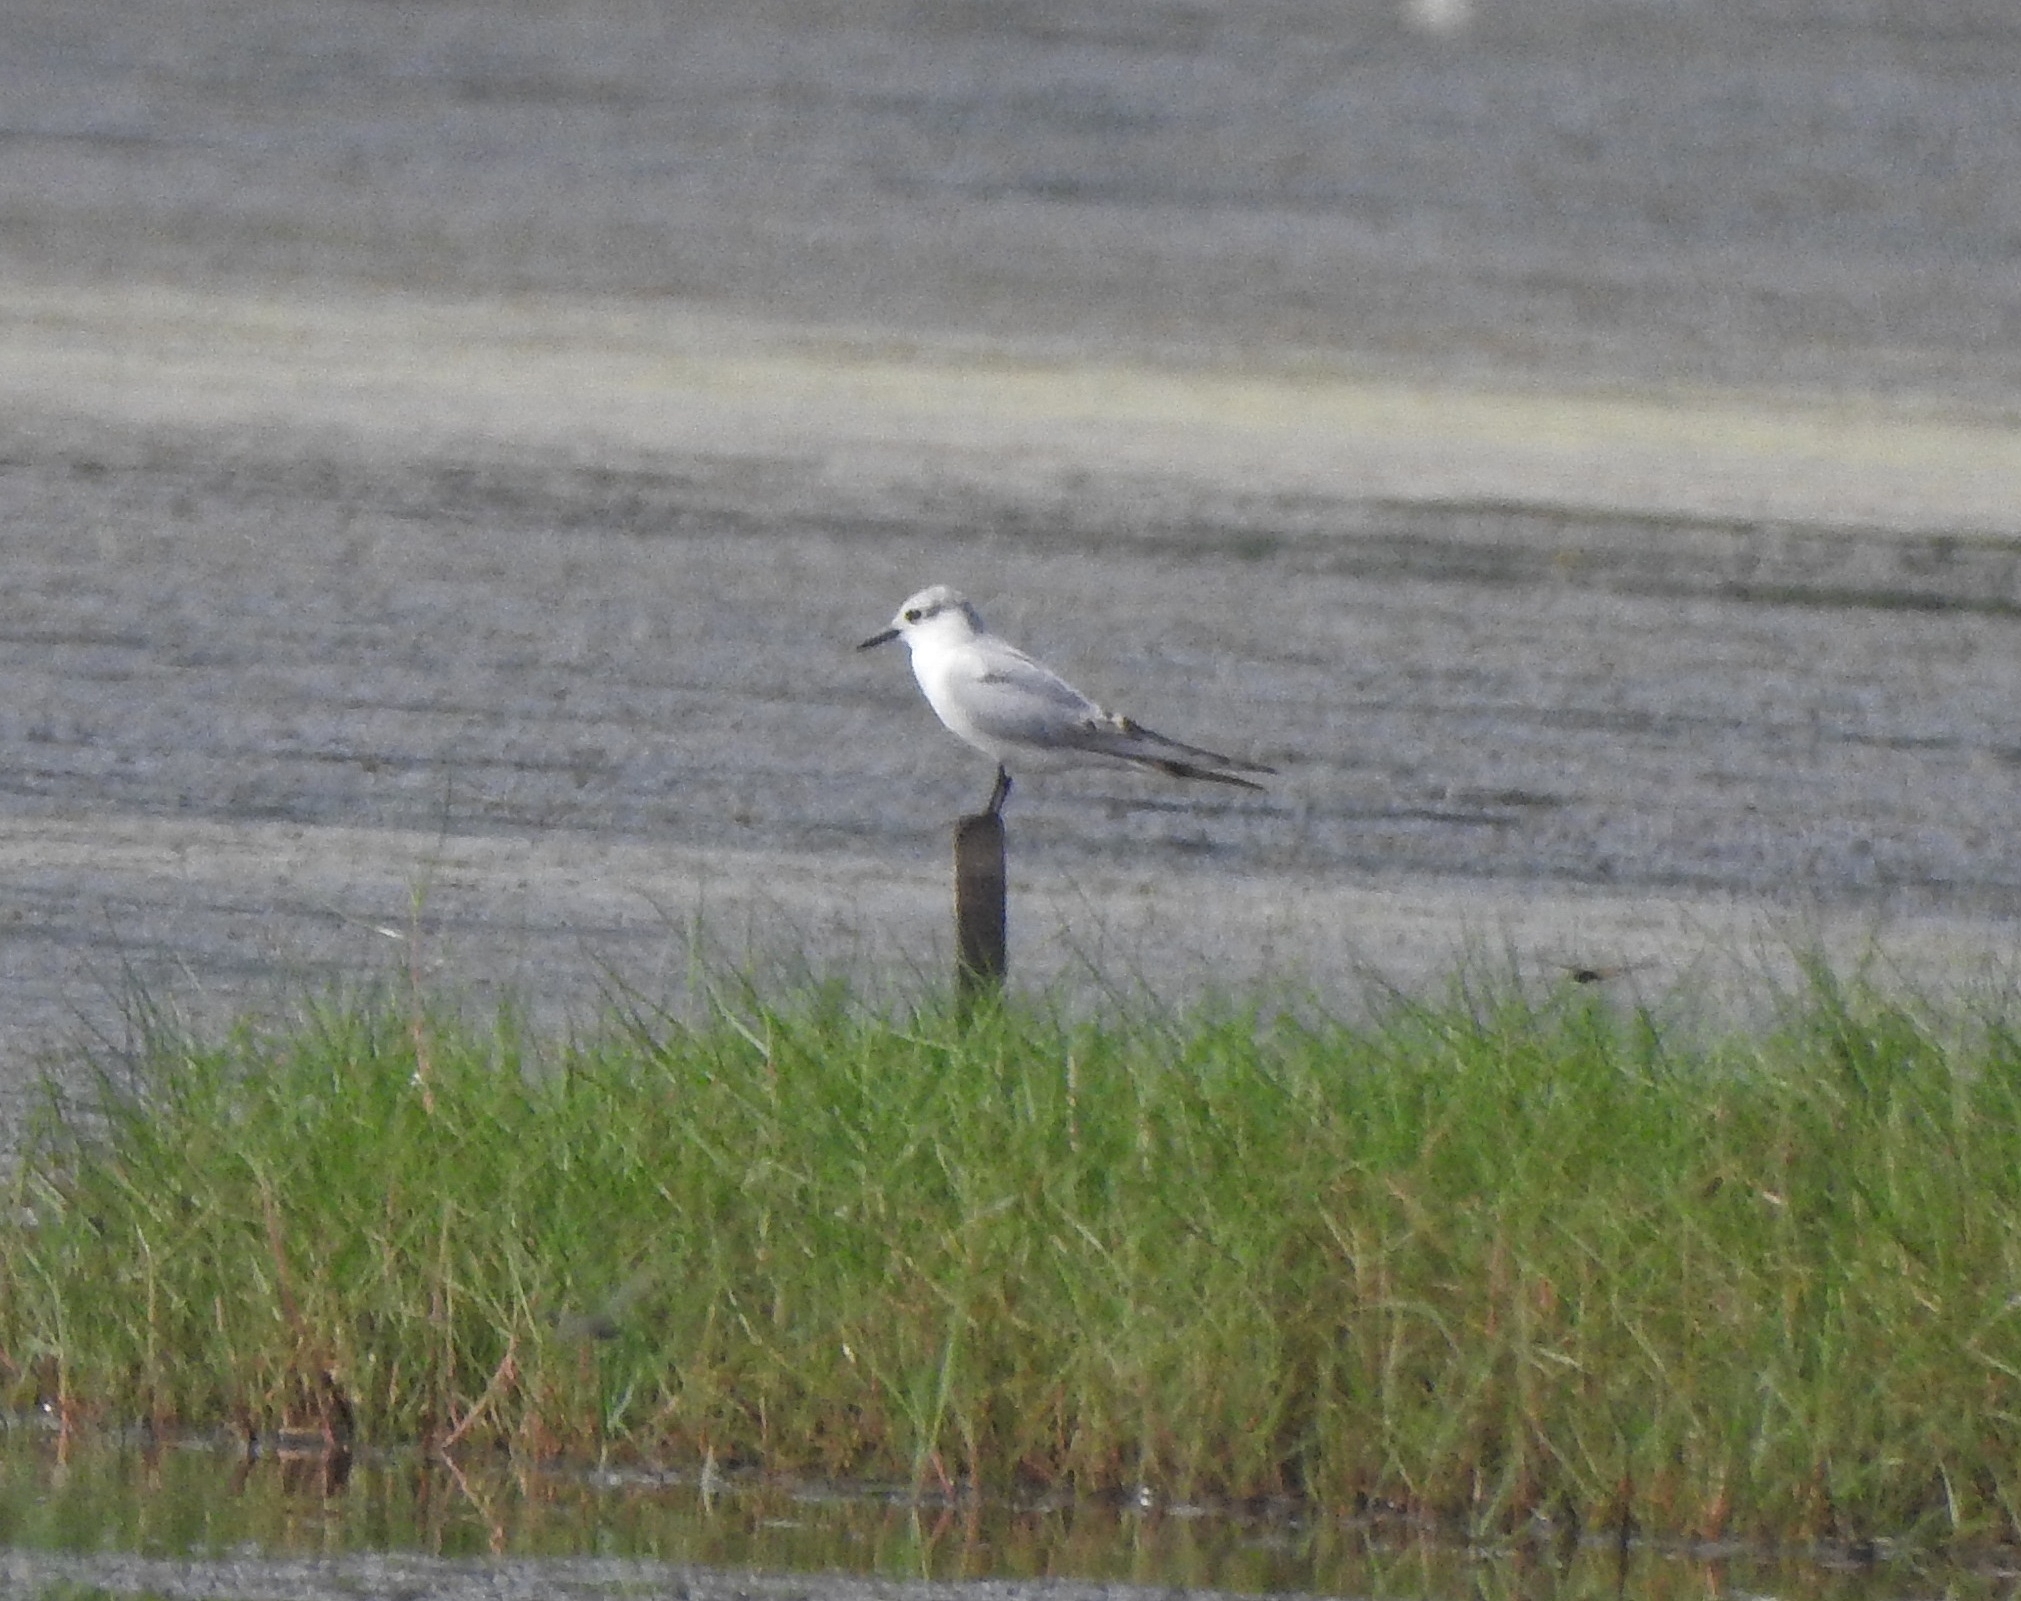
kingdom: Animalia
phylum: Chordata
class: Aves
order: Charadriiformes
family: Laridae
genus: Chlidonias
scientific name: Chlidonias hybrida
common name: Whiskered tern
